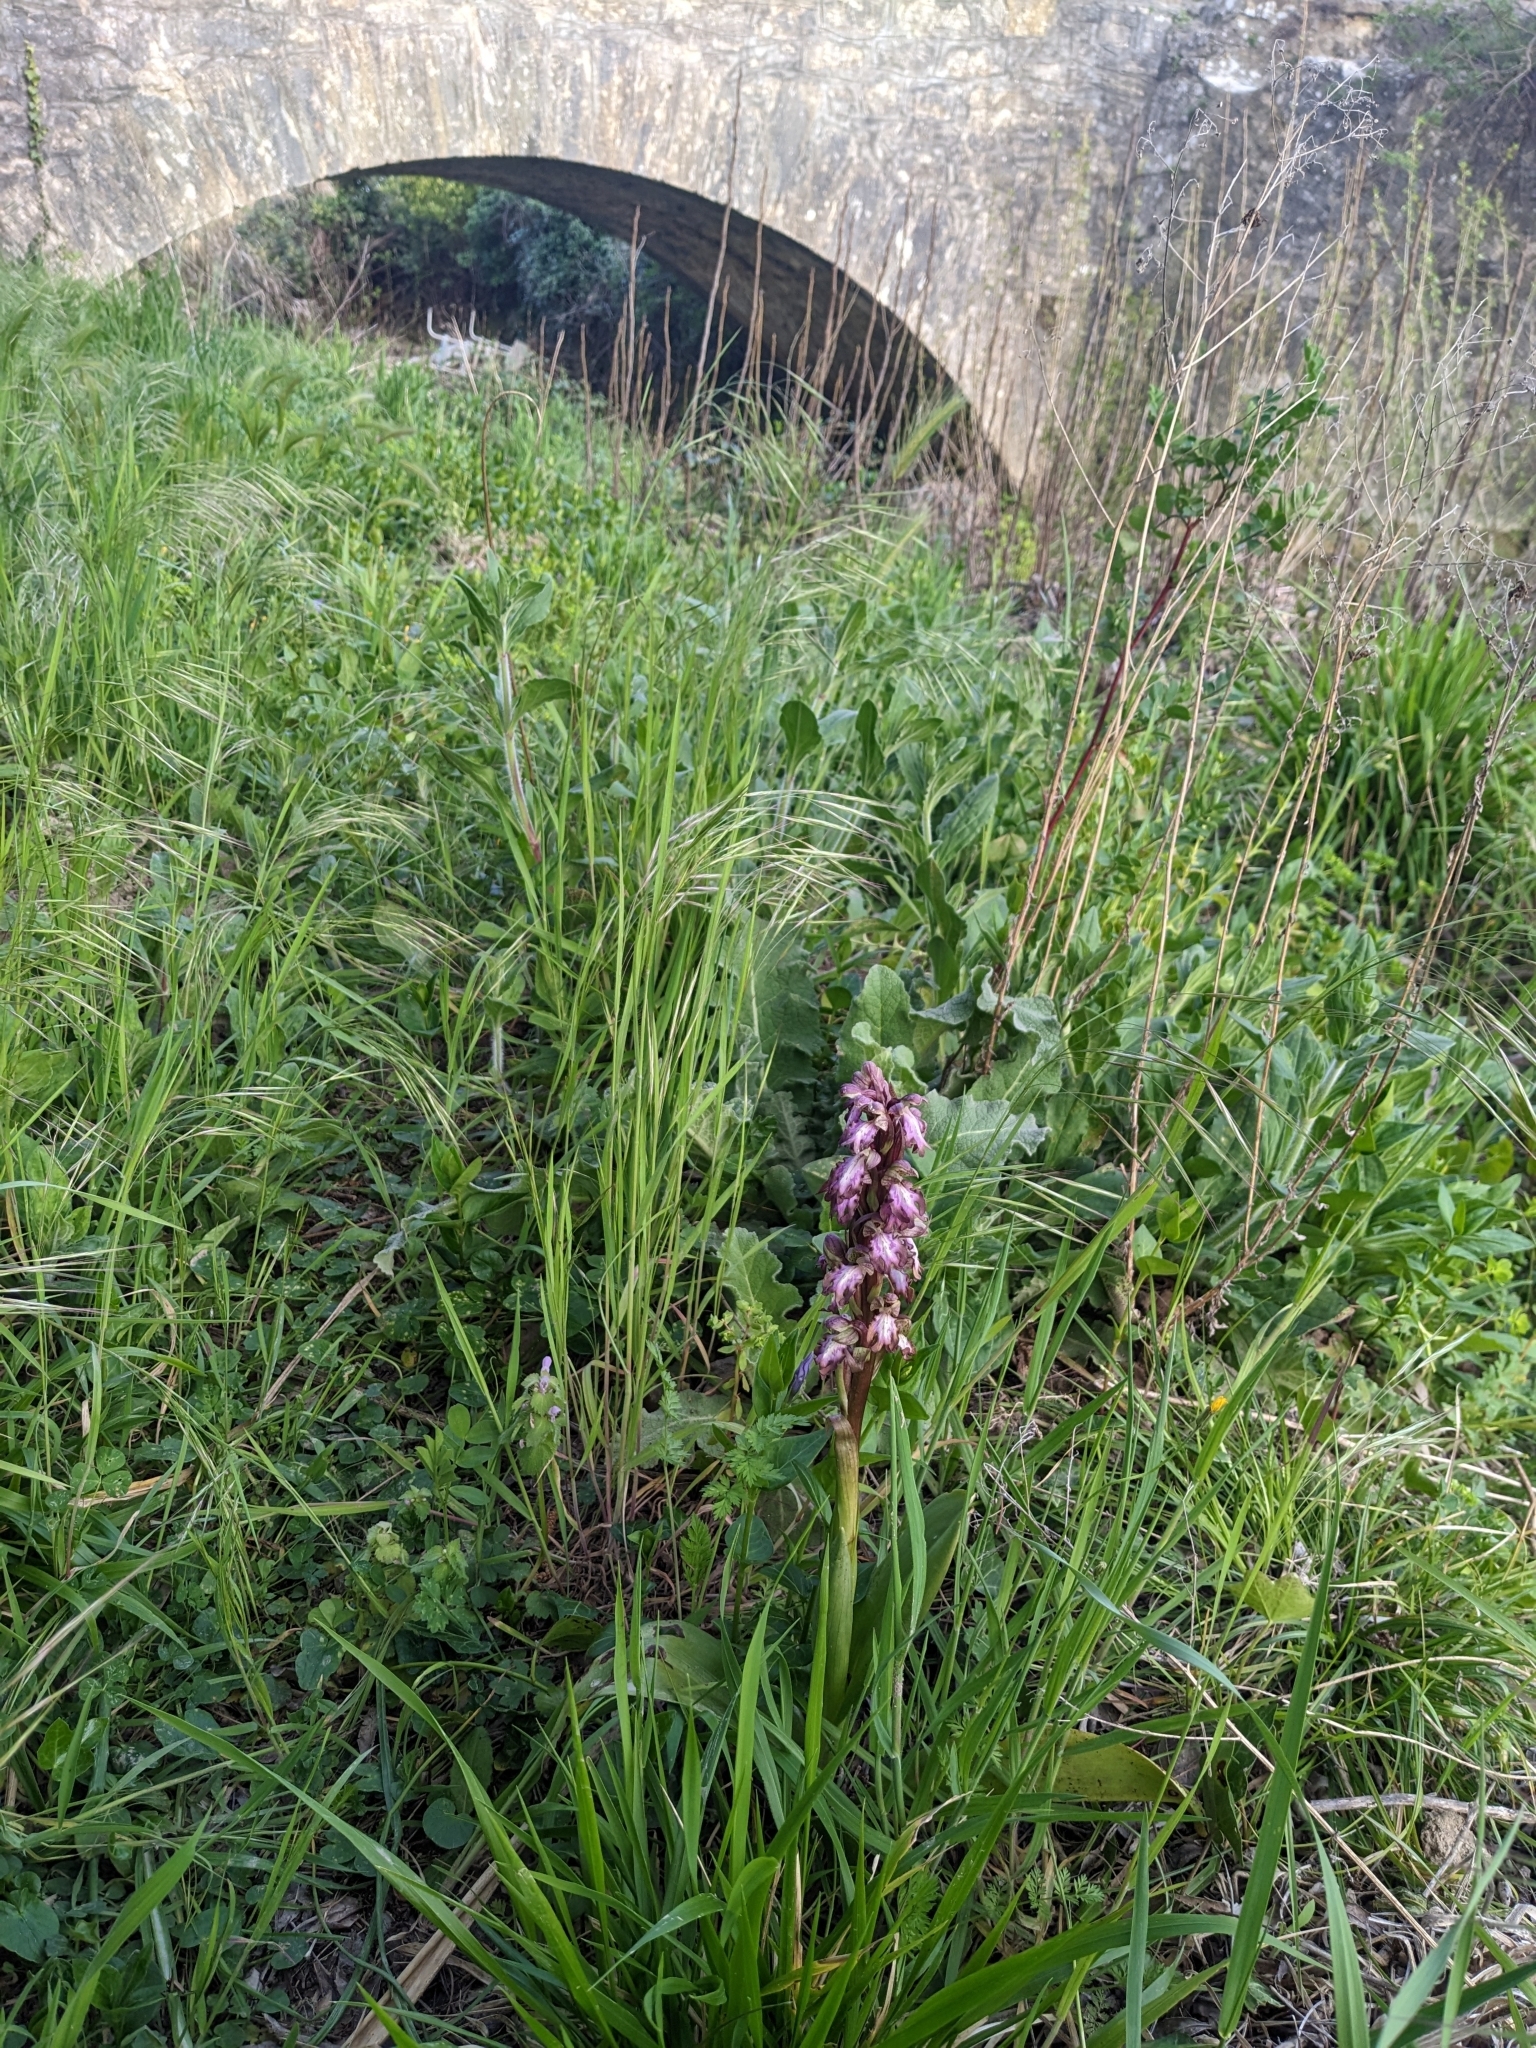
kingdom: Plantae
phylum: Tracheophyta
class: Liliopsida
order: Asparagales
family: Orchidaceae
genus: Himantoglossum
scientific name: Himantoglossum robertianum
